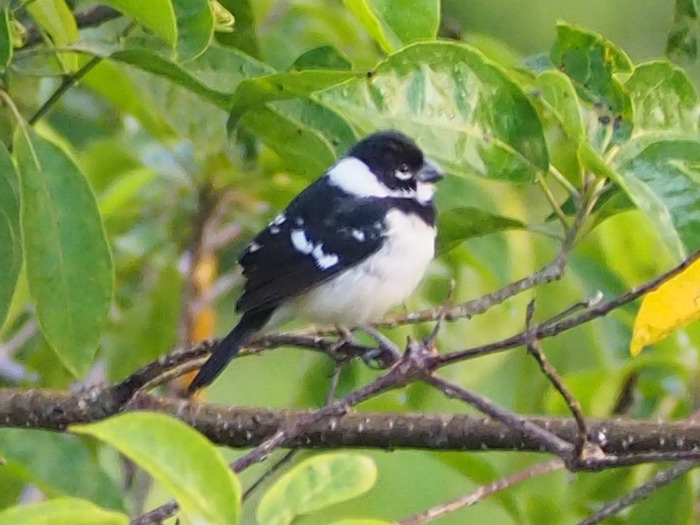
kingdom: Animalia
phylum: Chordata
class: Aves
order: Passeriformes
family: Thraupidae
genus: Sporophila
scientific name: Sporophila morelleti
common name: Morelet's seedeater
